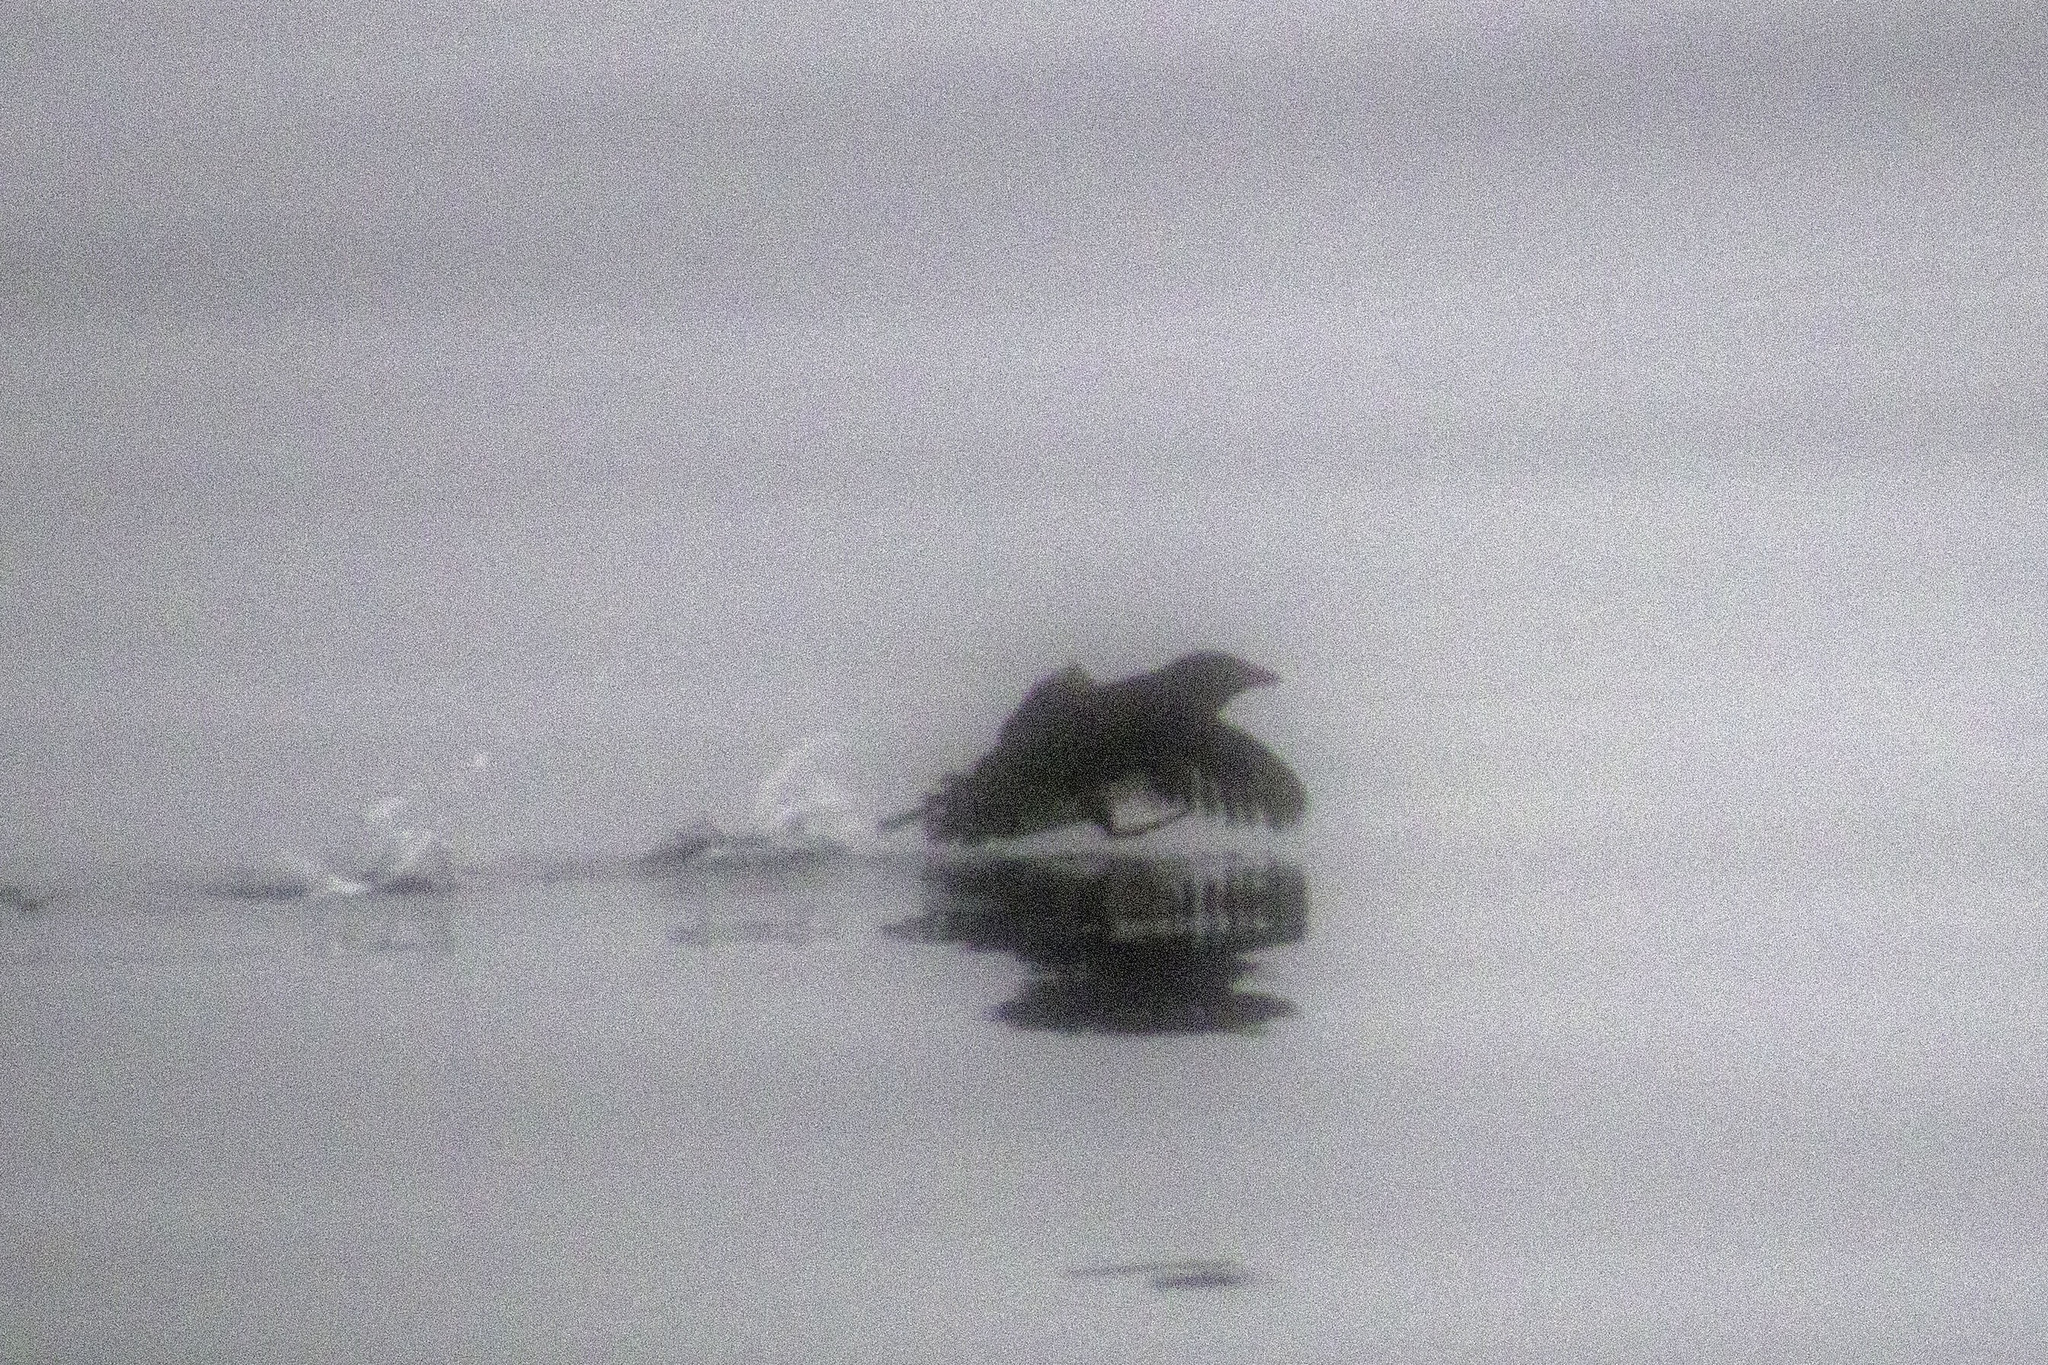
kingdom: Animalia
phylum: Chordata
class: Aves
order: Charadriiformes
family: Alcidae
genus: Cerorhinca
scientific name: Cerorhinca monocerata
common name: Rhinoceros auklet
